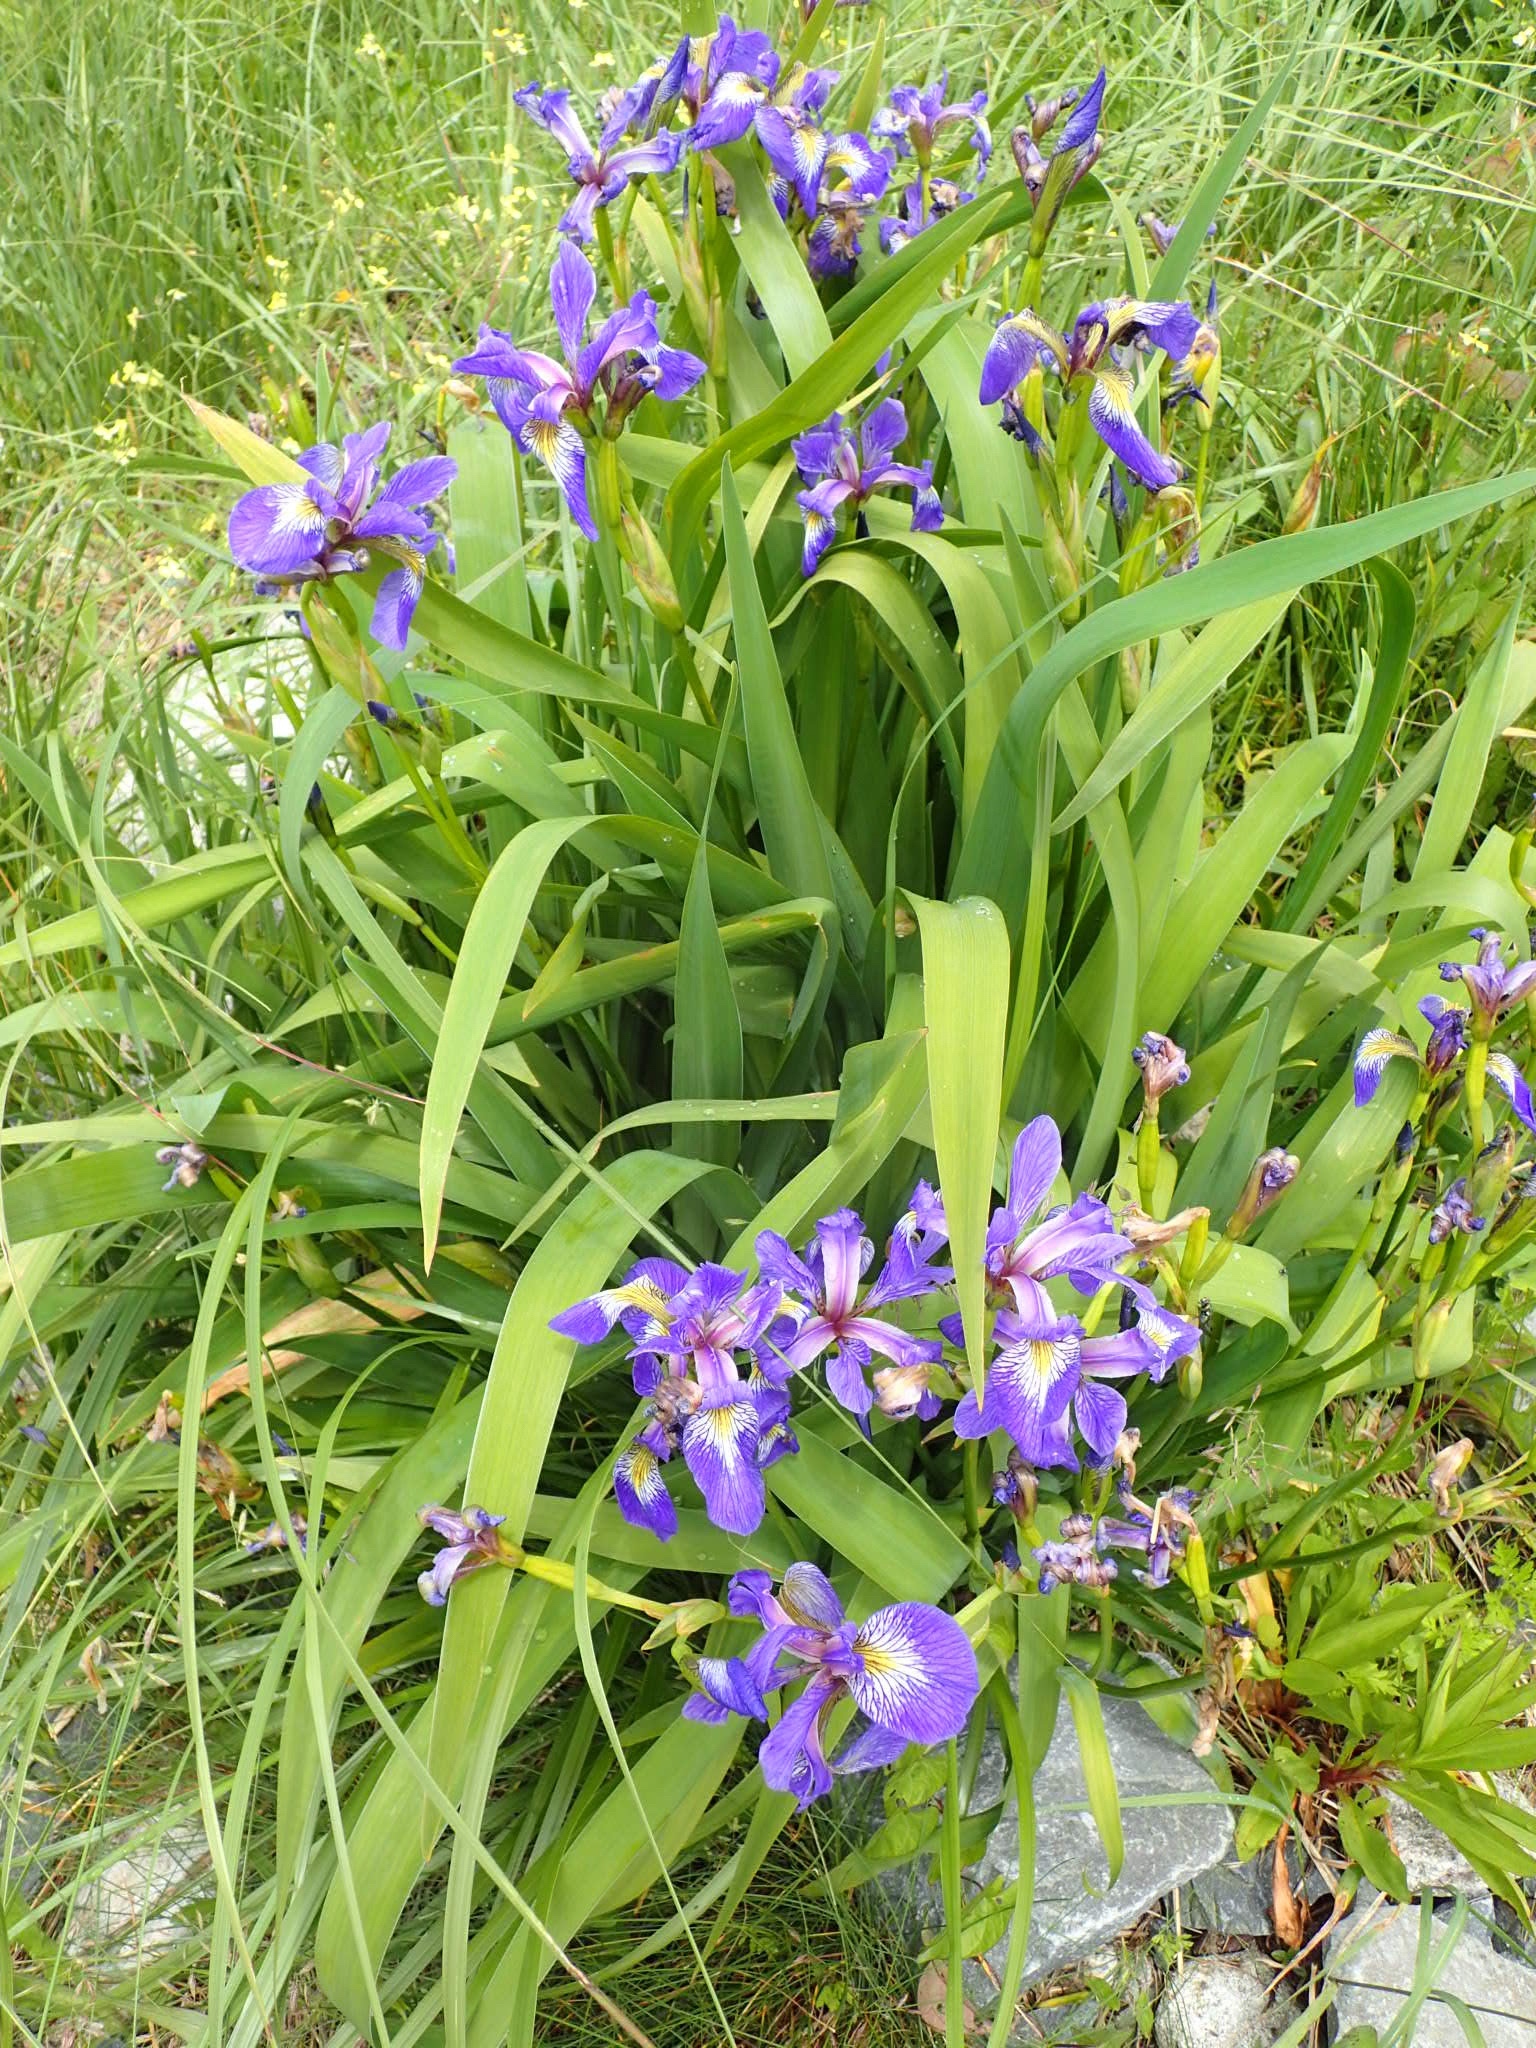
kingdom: Plantae
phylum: Tracheophyta
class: Liliopsida
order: Asparagales
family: Iridaceae
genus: Iris
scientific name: Iris versicolor
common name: Purple iris
